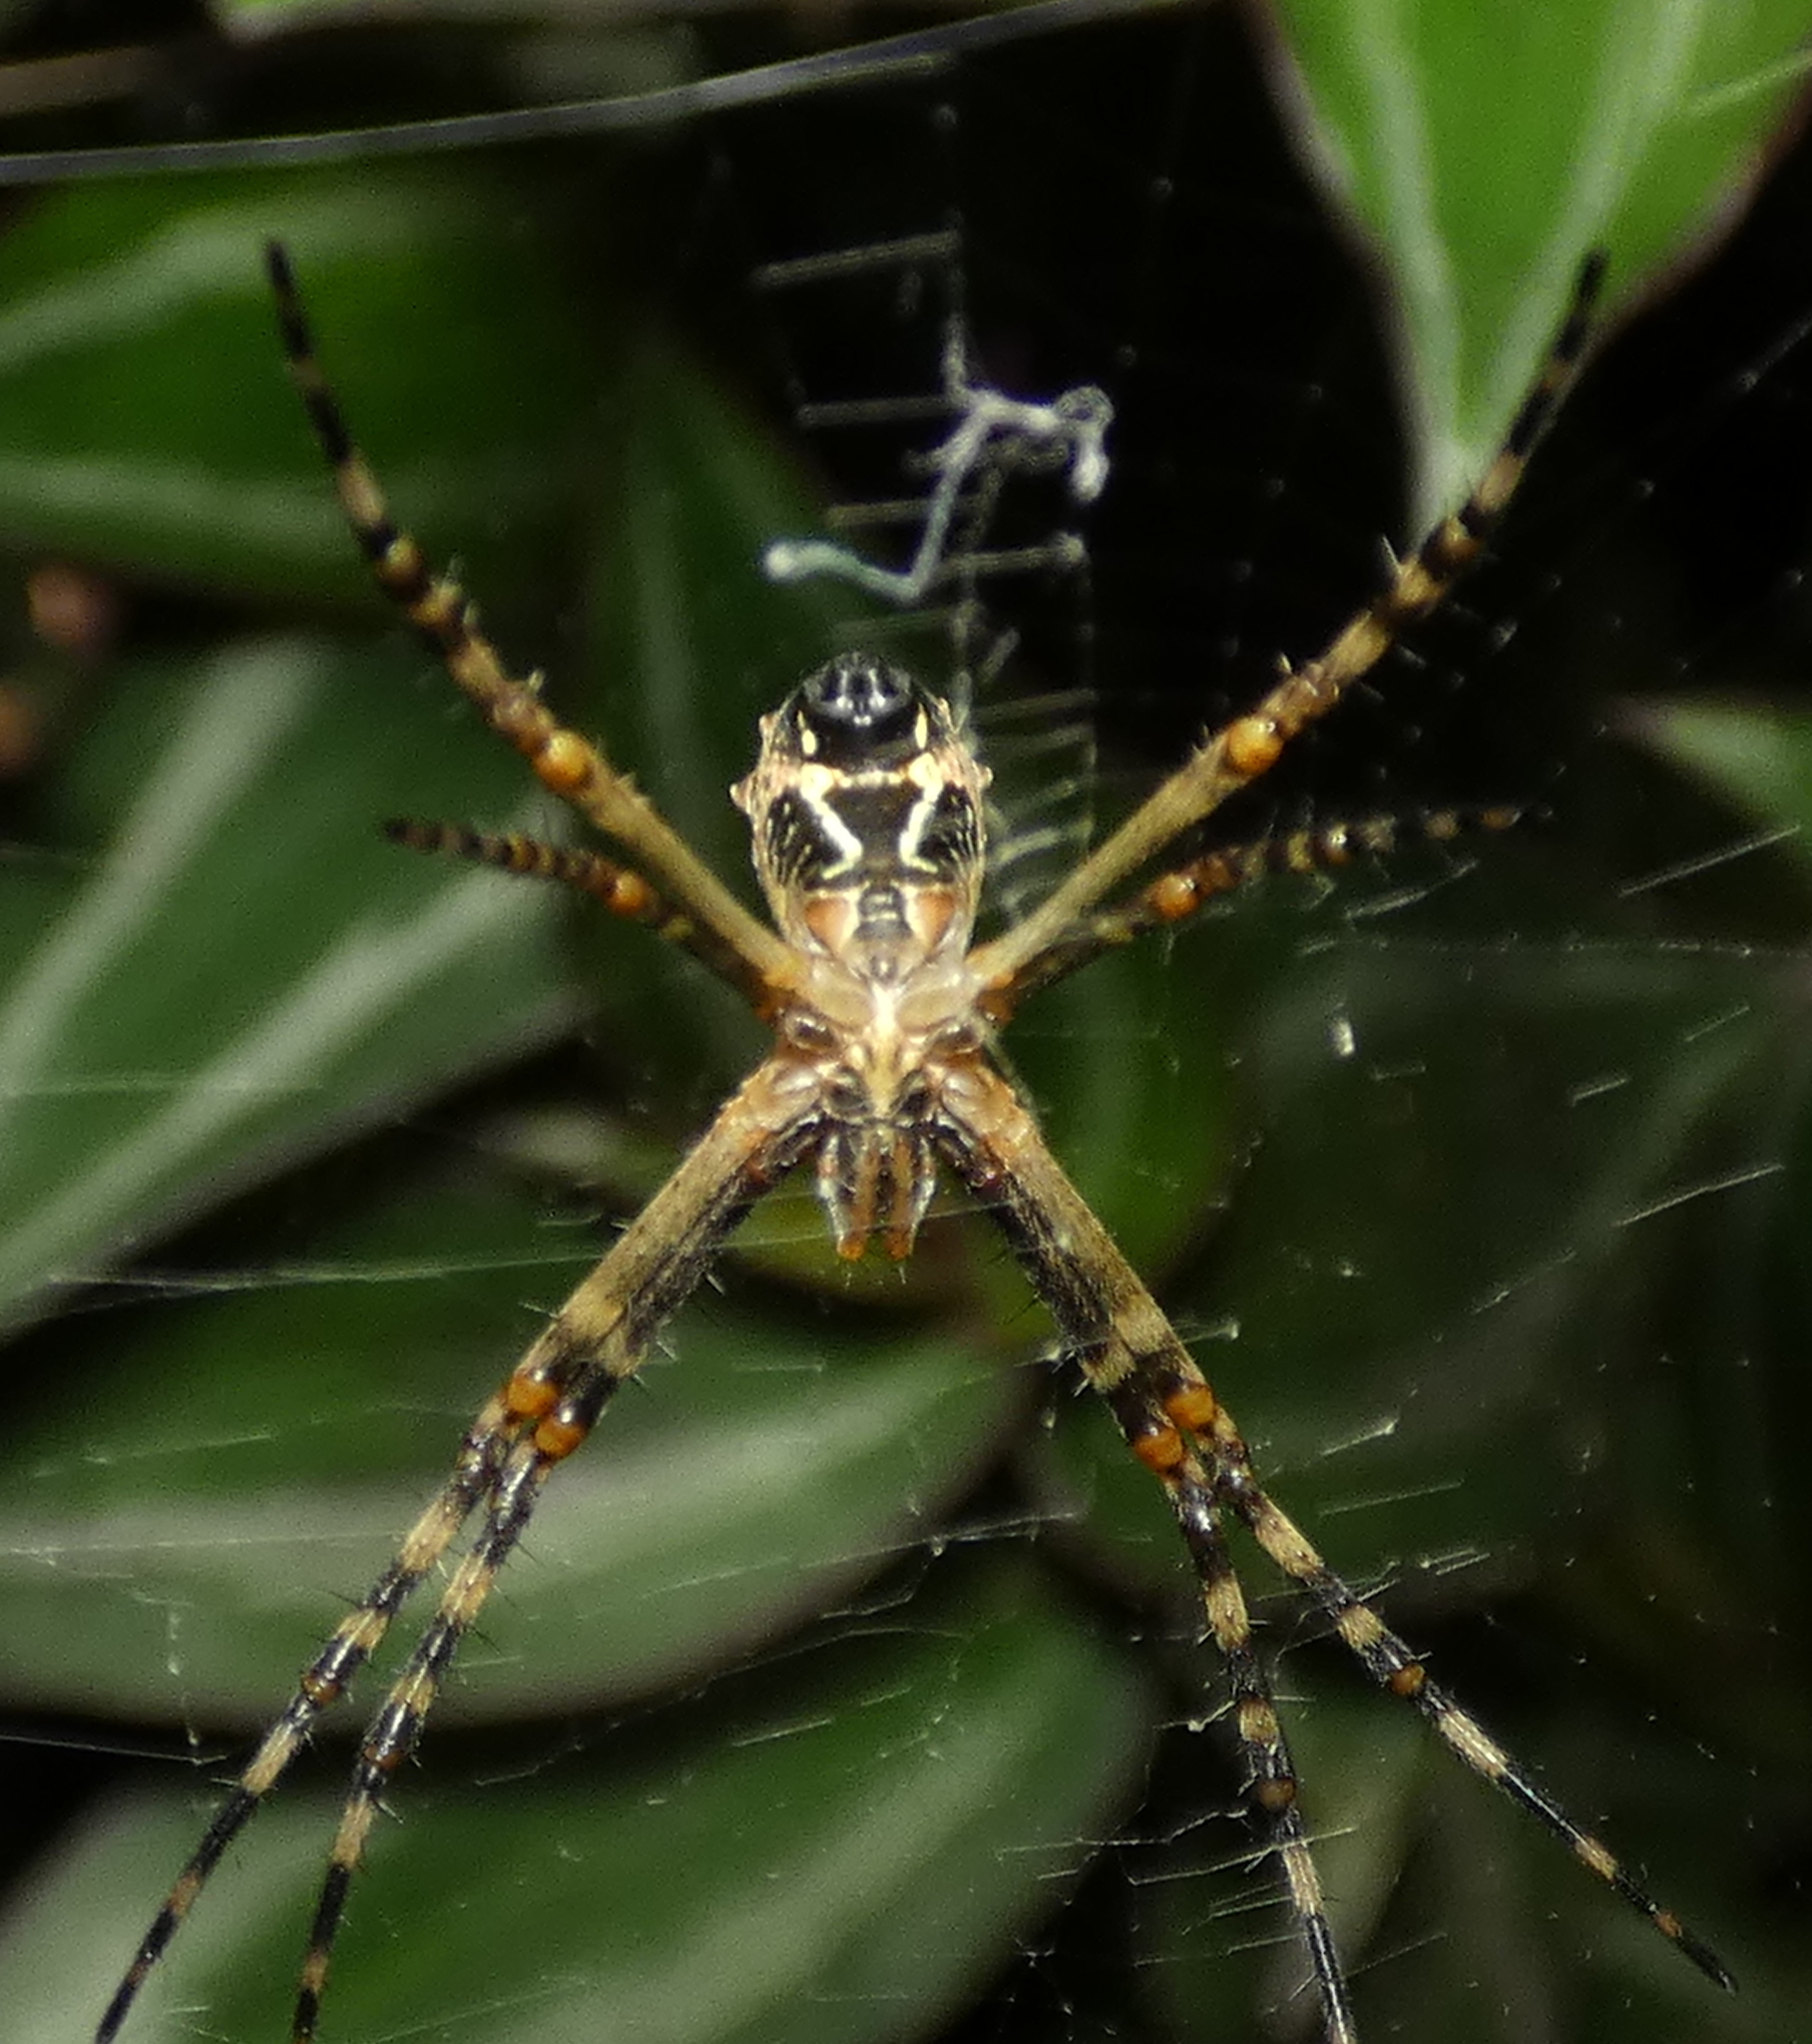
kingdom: Animalia
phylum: Arthropoda
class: Arachnida
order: Araneae
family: Araneidae
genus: Argiope
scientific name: Argiope argentata
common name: Orb weavers
